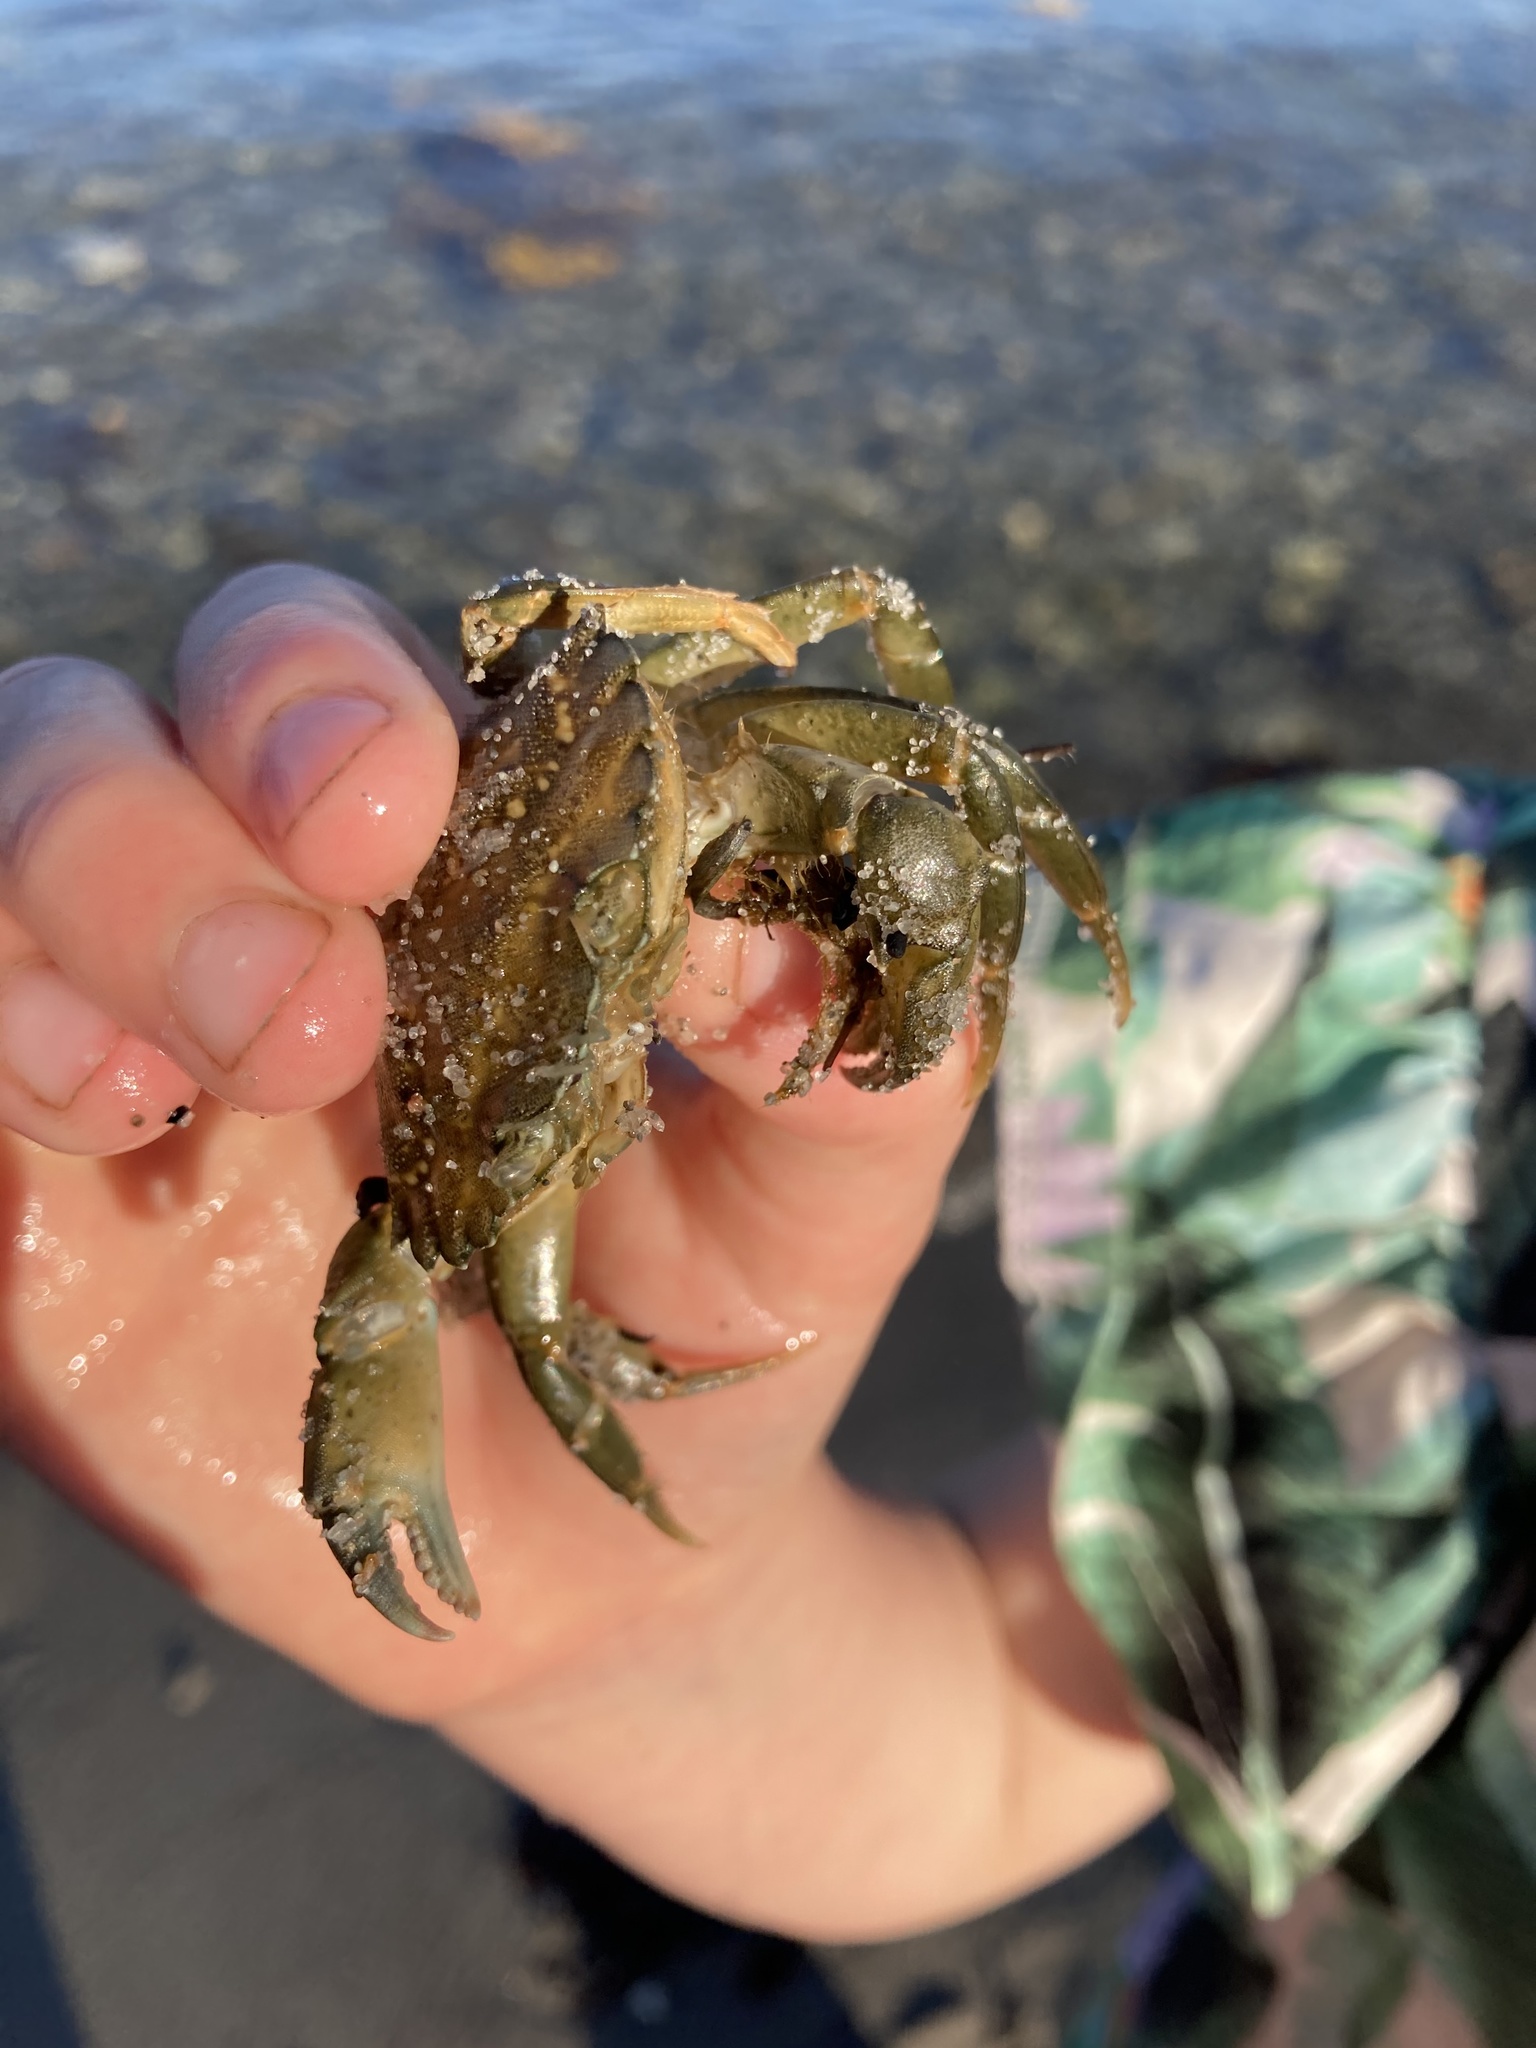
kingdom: Animalia
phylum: Arthropoda
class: Malacostraca
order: Decapoda
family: Carcinidae
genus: Carcinus
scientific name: Carcinus maenas
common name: European green crab
